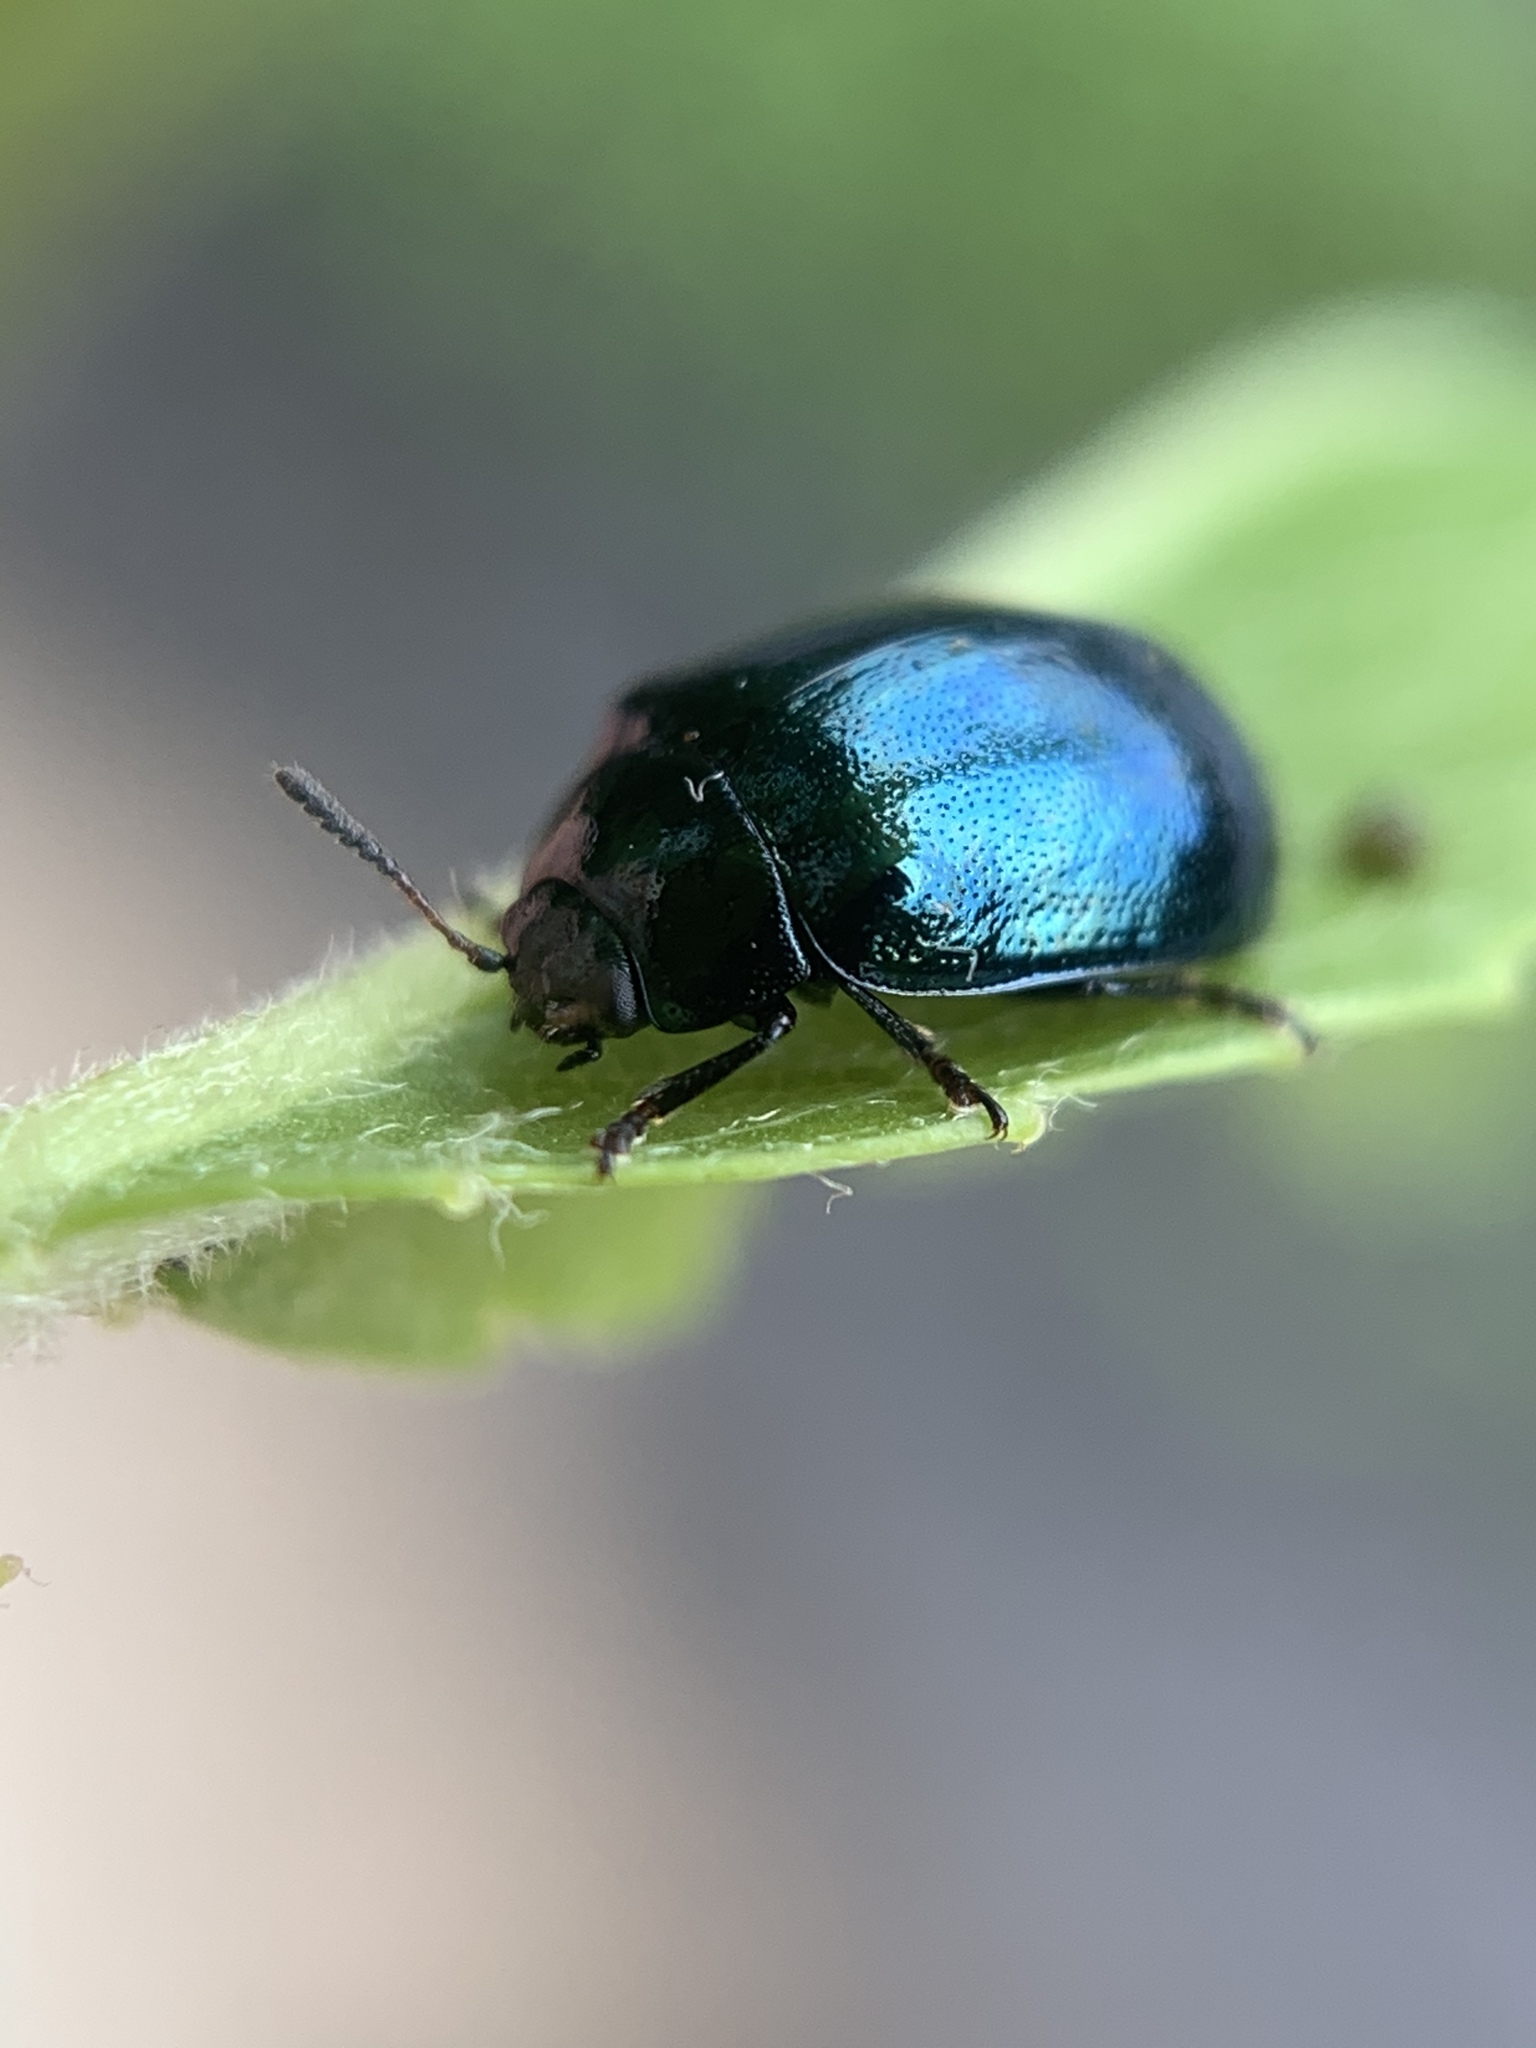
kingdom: Animalia
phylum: Arthropoda
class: Insecta
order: Coleoptera
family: Chrysomelidae
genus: Plagiodera
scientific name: Plagiodera versicolora
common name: Imported willow leaf beetle
